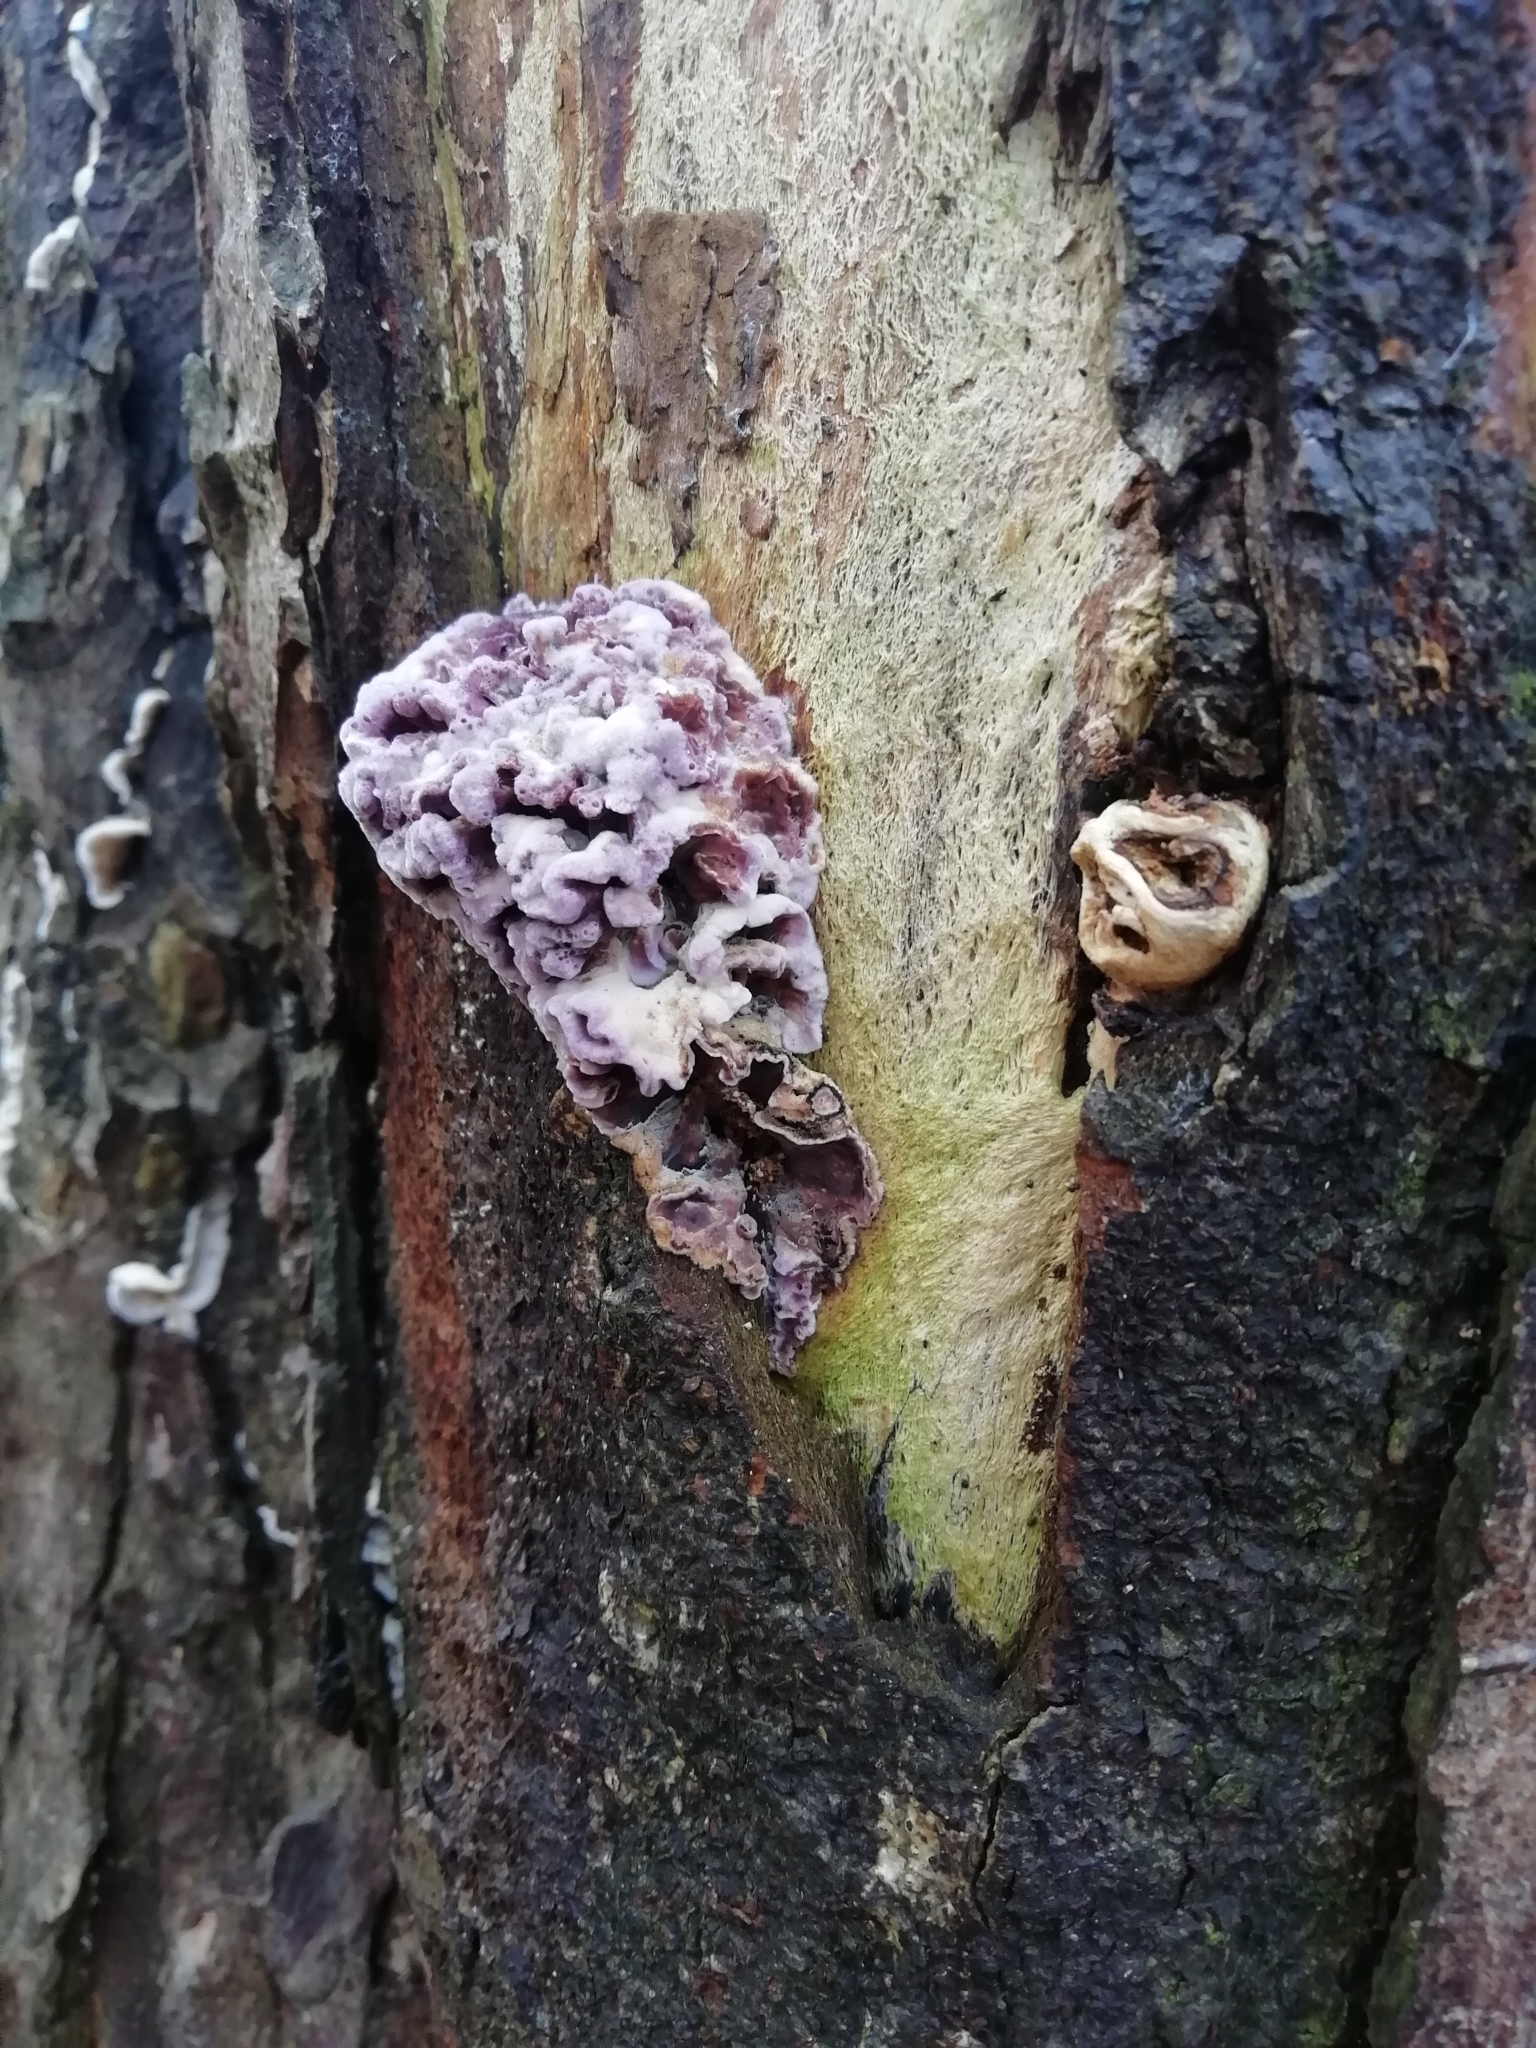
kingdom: Fungi
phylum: Basidiomycota
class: Agaricomycetes
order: Agaricales
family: Cyphellaceae
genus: Chondrostereum
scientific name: Chondrostereum purpureum
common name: Silver leaf disease
